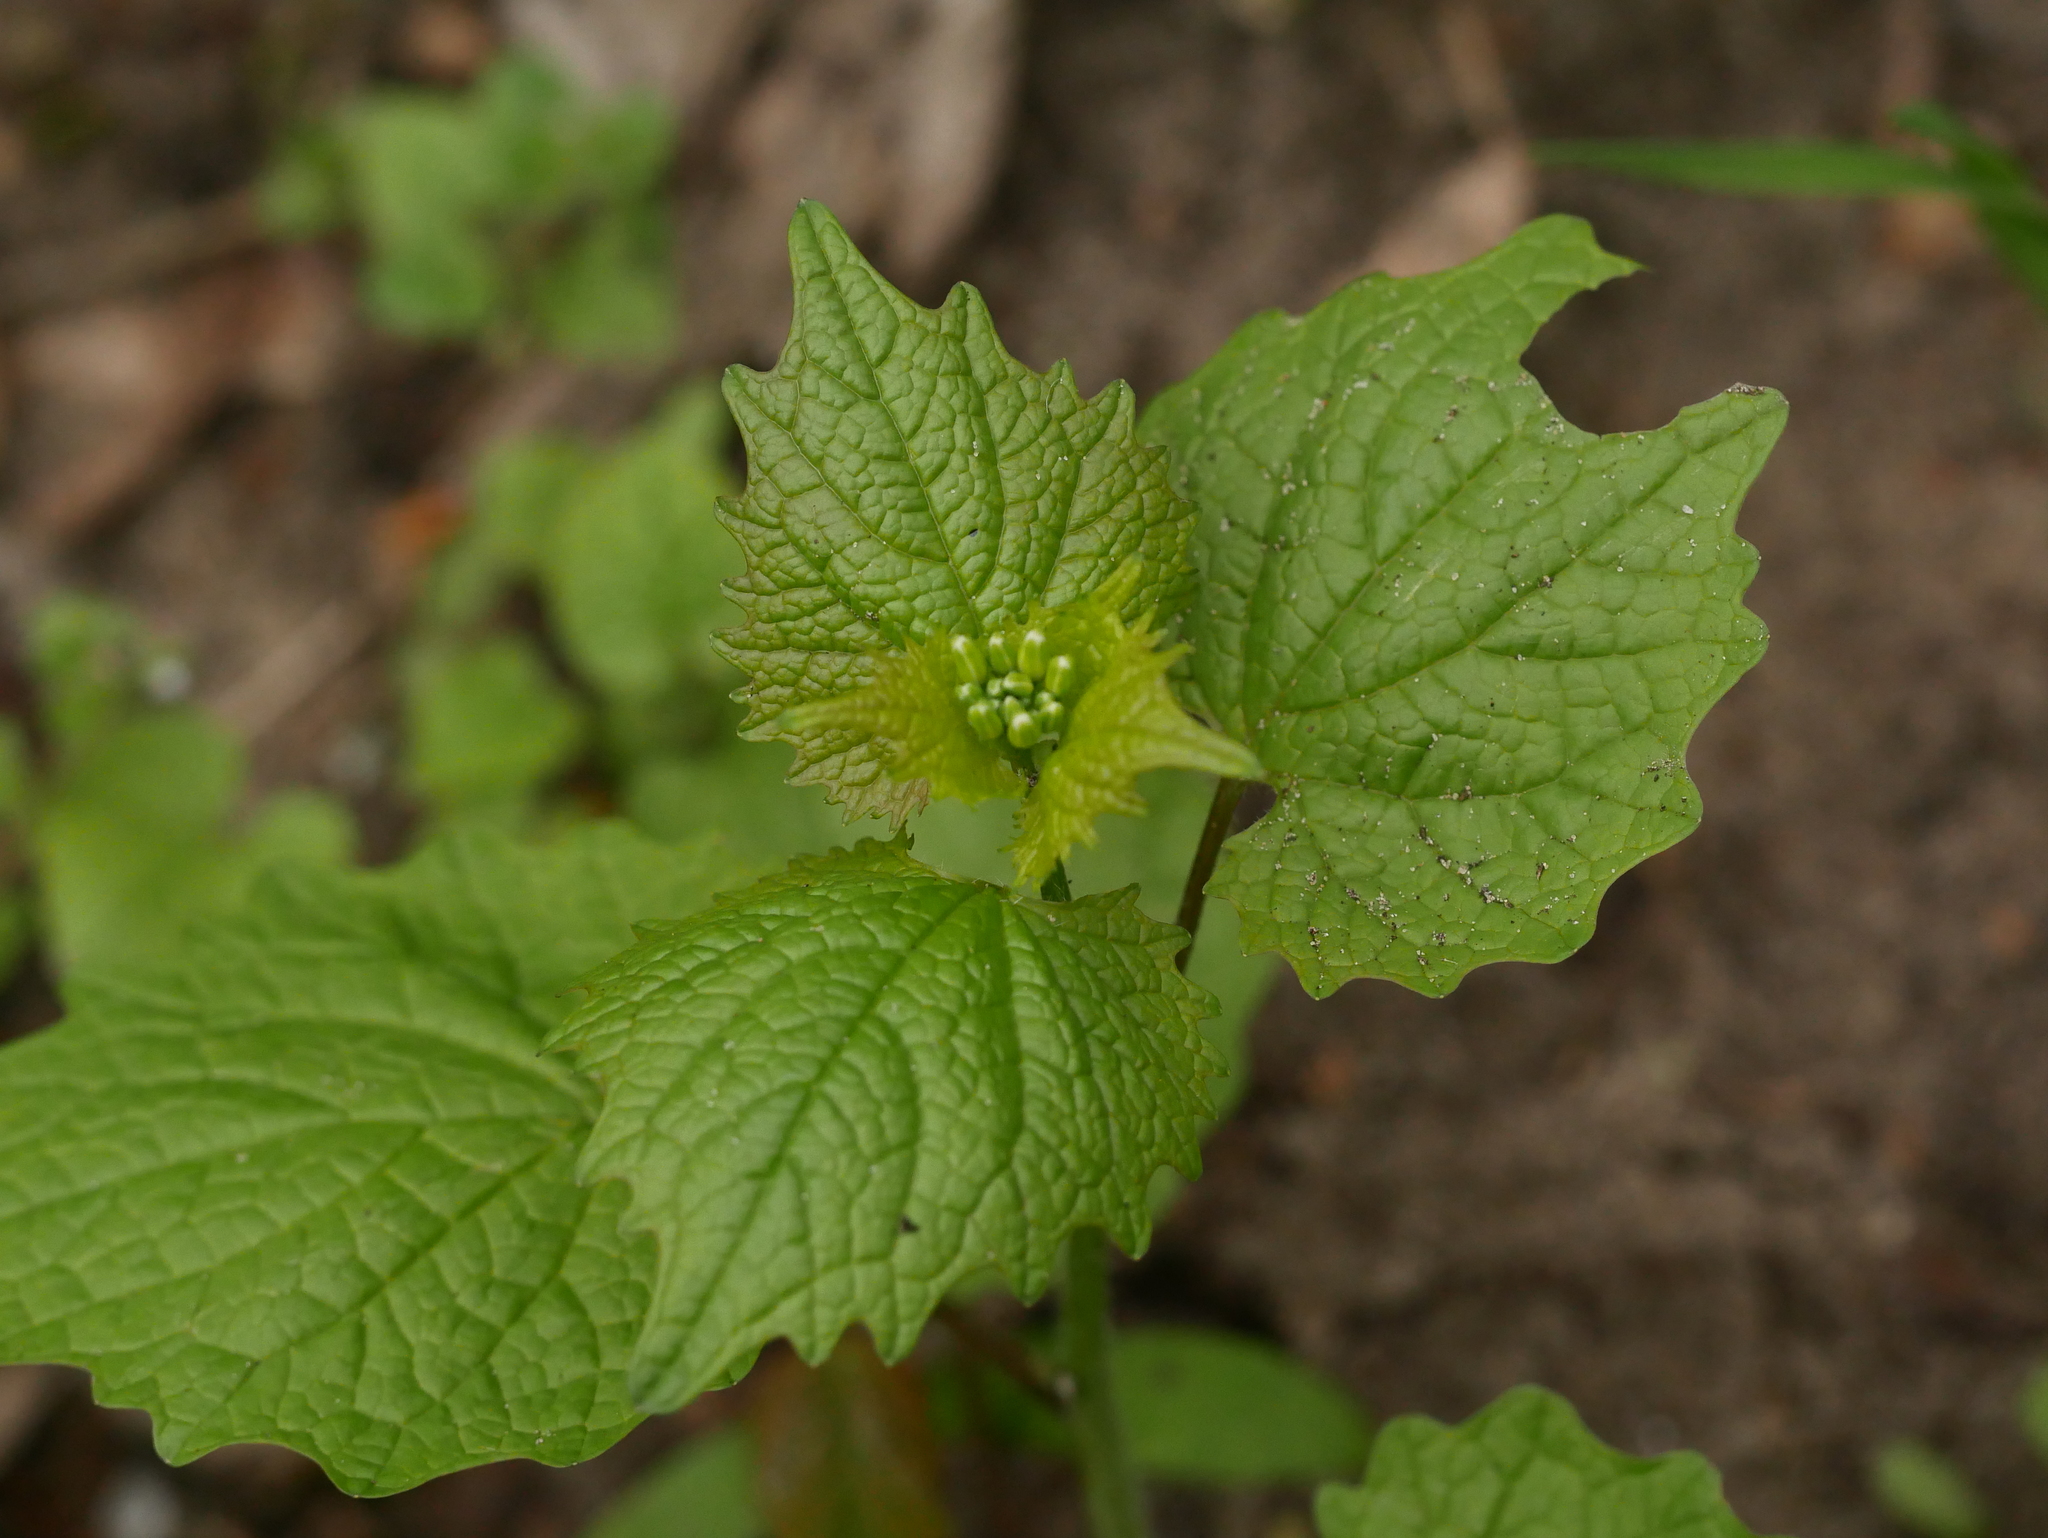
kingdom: Plantae
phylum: Tracheophyta
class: Magnoliopsida
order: Brassicales
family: Brassicaceae
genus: Alliaria
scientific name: Alliaria petiolata
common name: Garlic mustard
